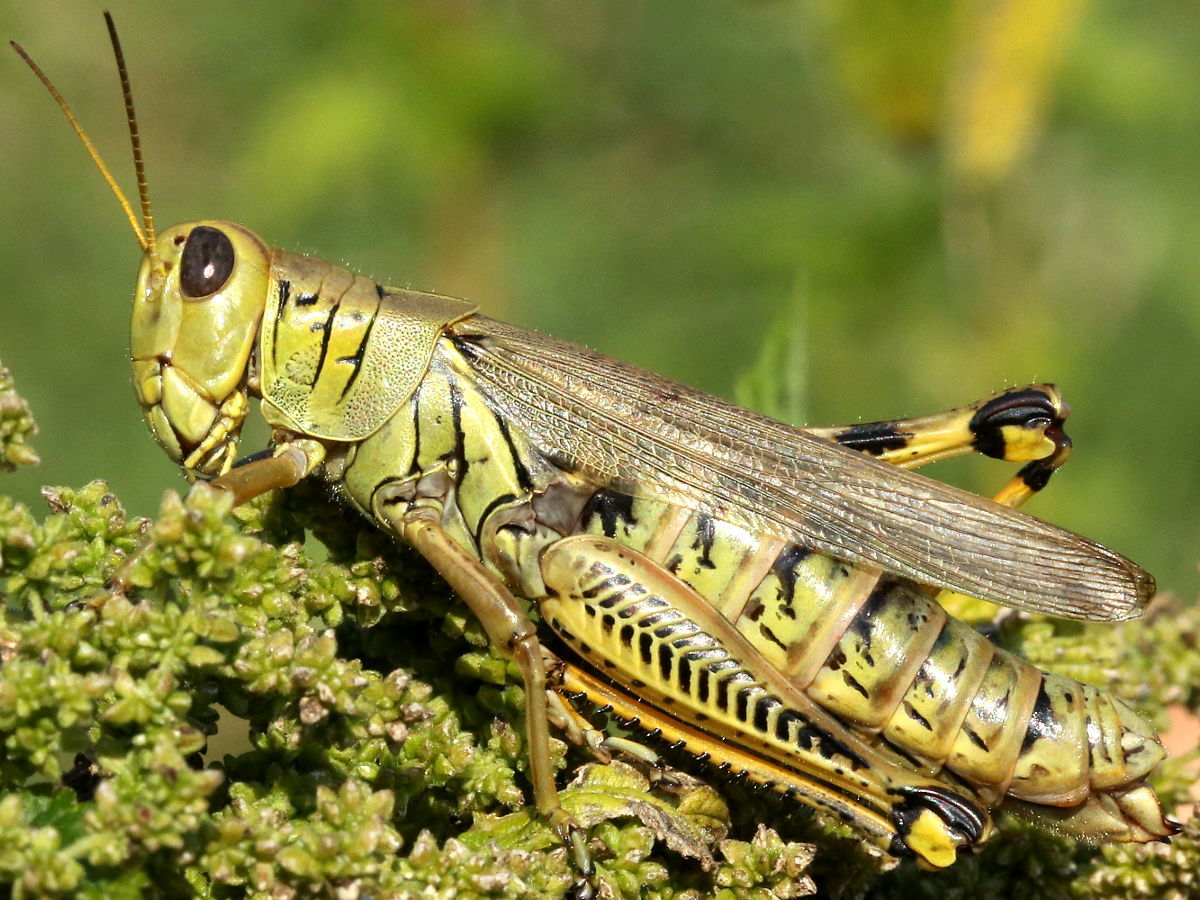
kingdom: Animalia
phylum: Arthropoda
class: Insecta
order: Orthoptera
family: Acrididae
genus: Melanoplus
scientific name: Melanoplus differentialis
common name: Differential grasshopper
